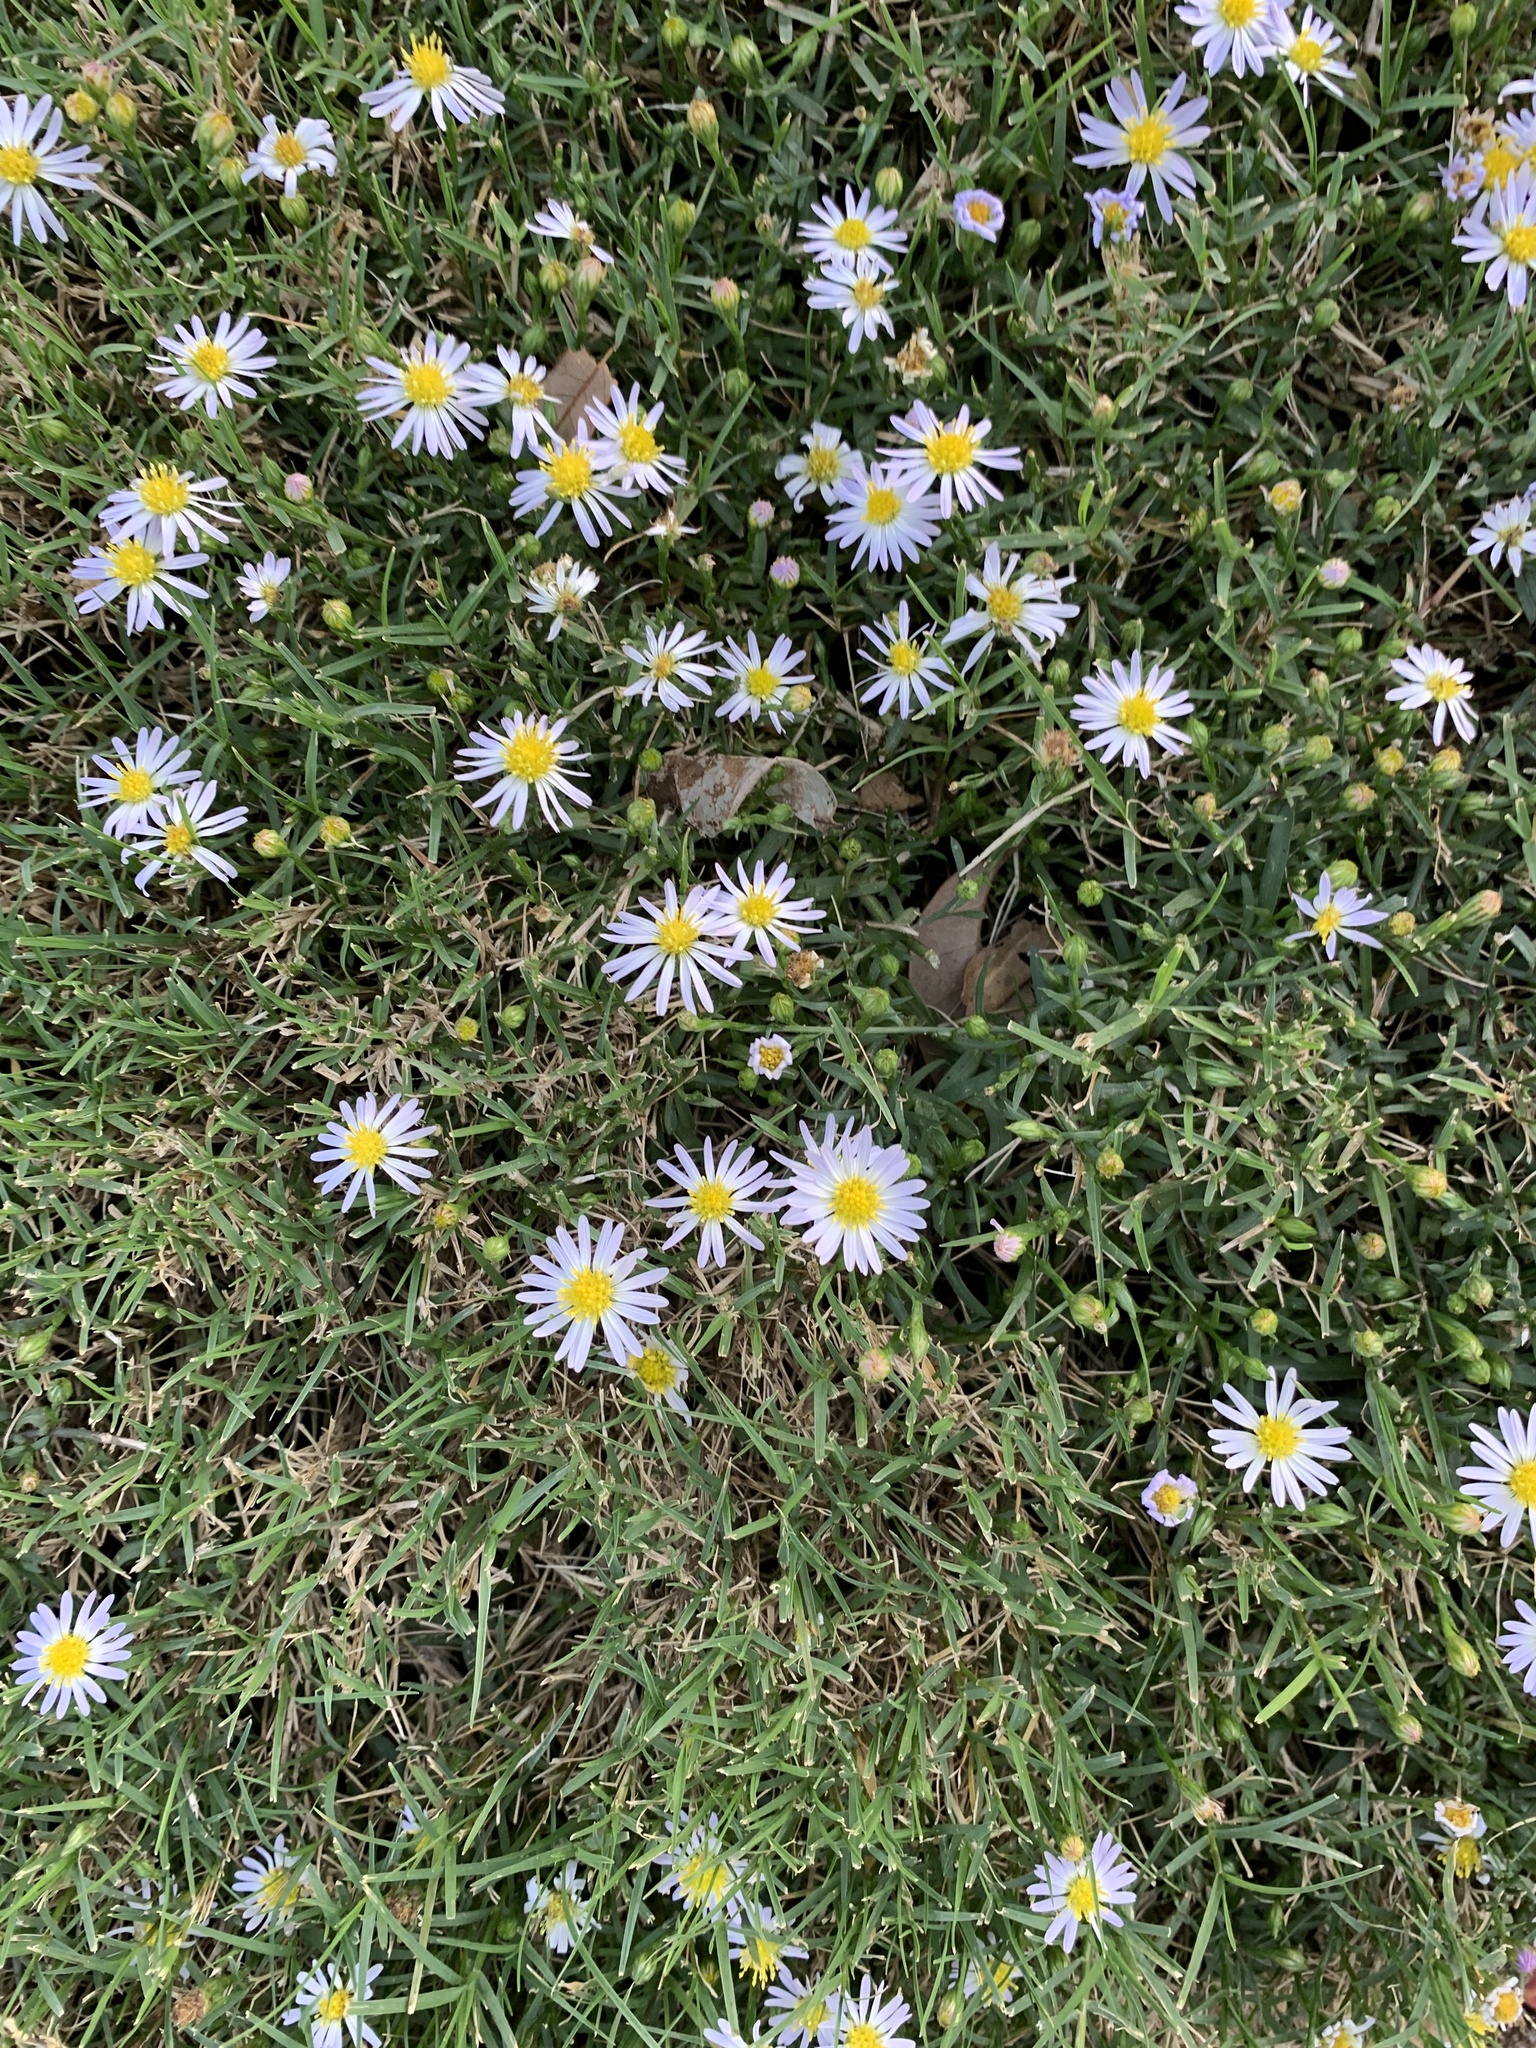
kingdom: Plantae
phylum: Tracheophyta
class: Magnoliopsida
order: Asterales
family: Asteraceae
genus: Symphyotrichum
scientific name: Symphyotrichum divaricatum
